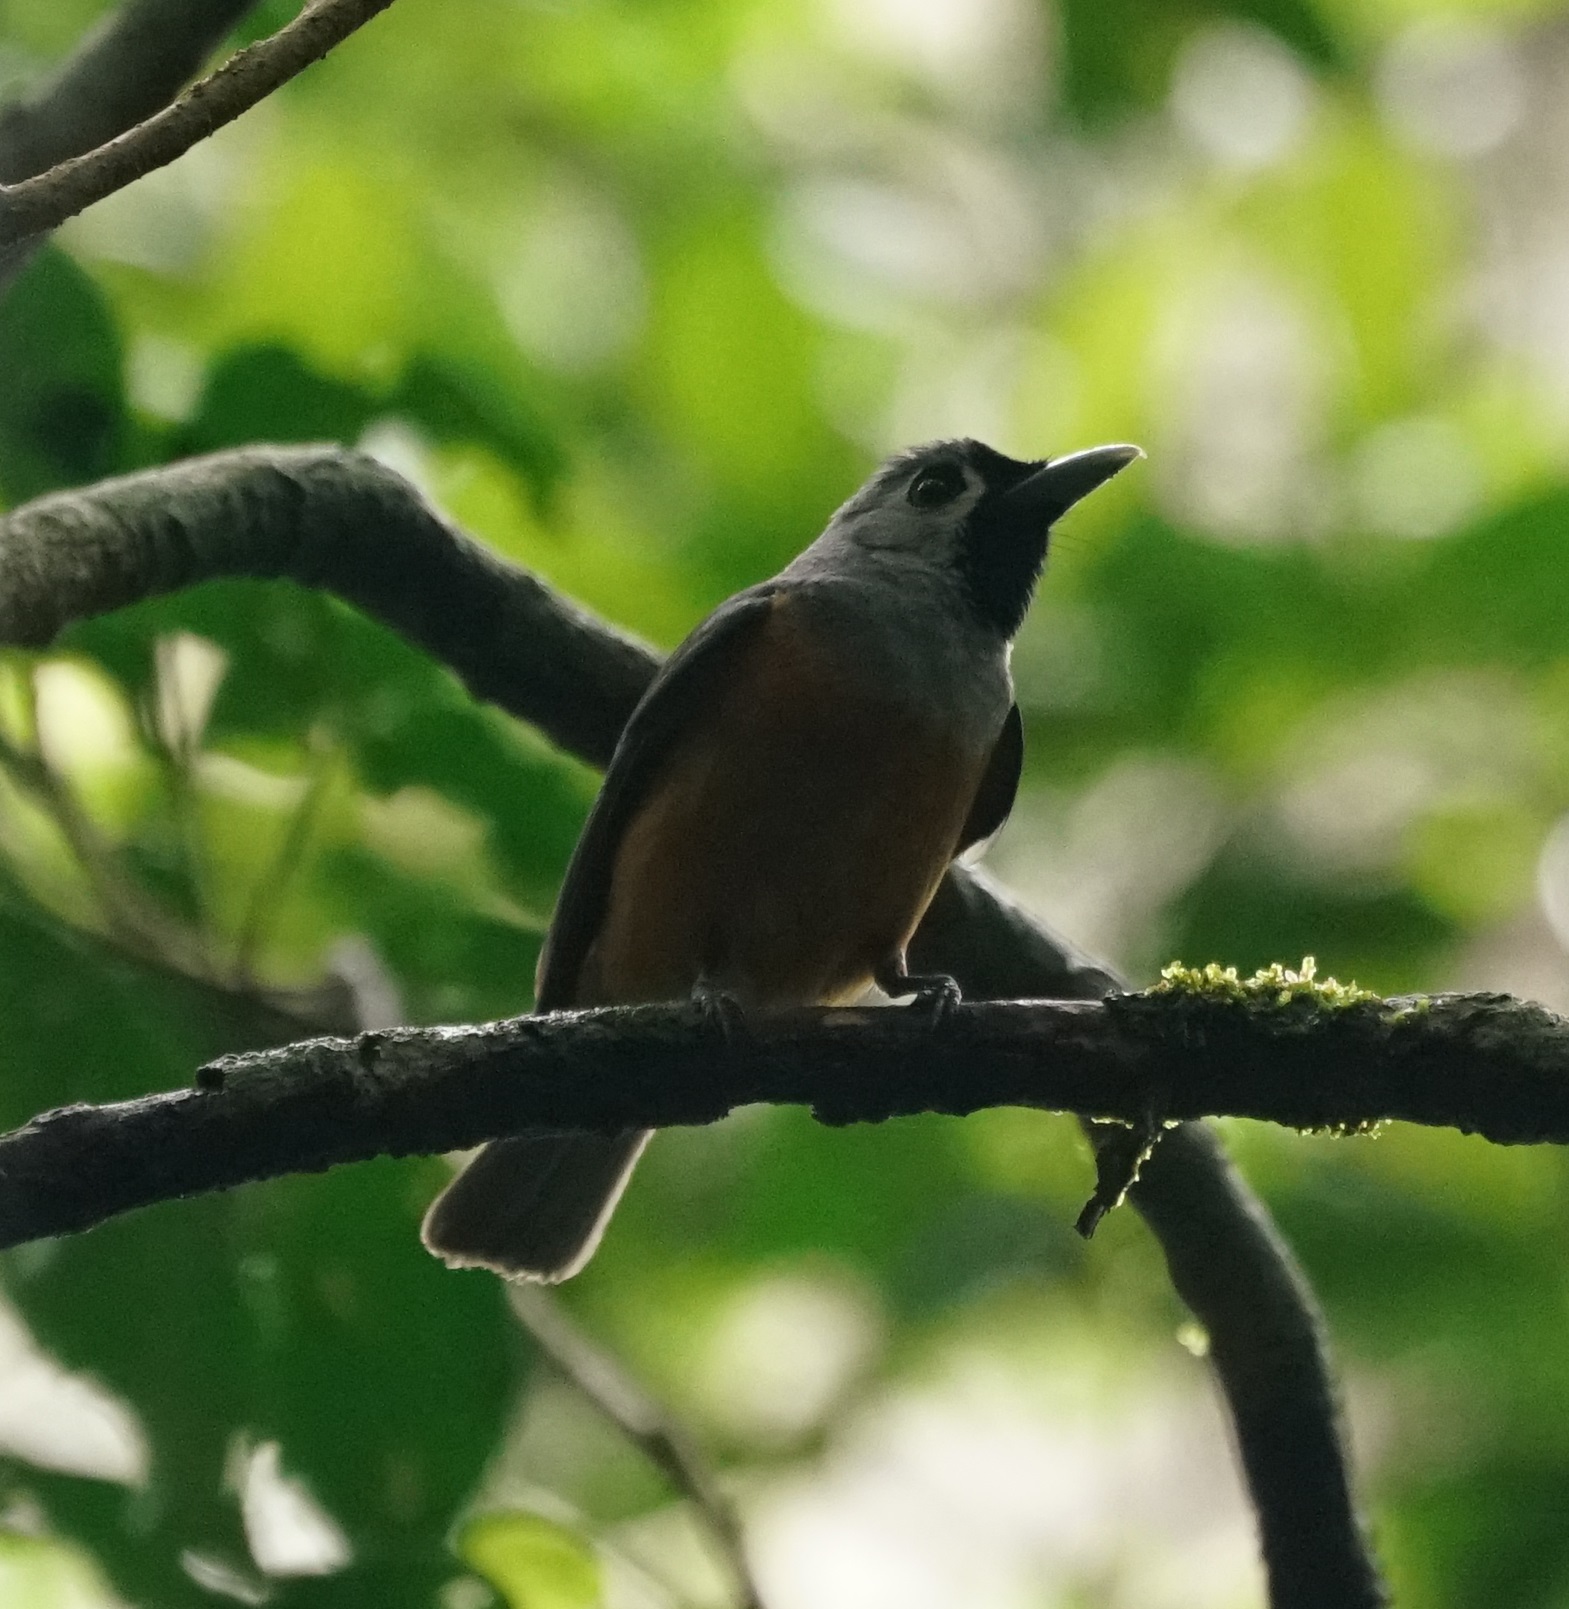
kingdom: Animalia
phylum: Chordata
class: Aves
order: Passeriformes
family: Monarchidae
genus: Monarcha
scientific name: Monarcha melanopsis
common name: Black-faced monarch
